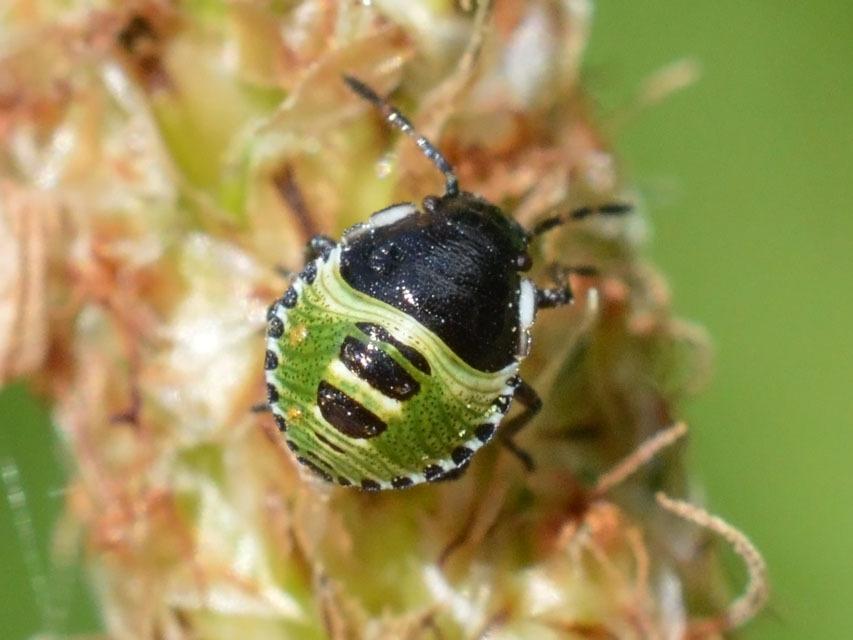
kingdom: Animalia
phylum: Arthropoda
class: Insecta
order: Hemiptera
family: Pentatomidae
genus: Palomena
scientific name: Palomena prasina
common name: Green shieldbug
